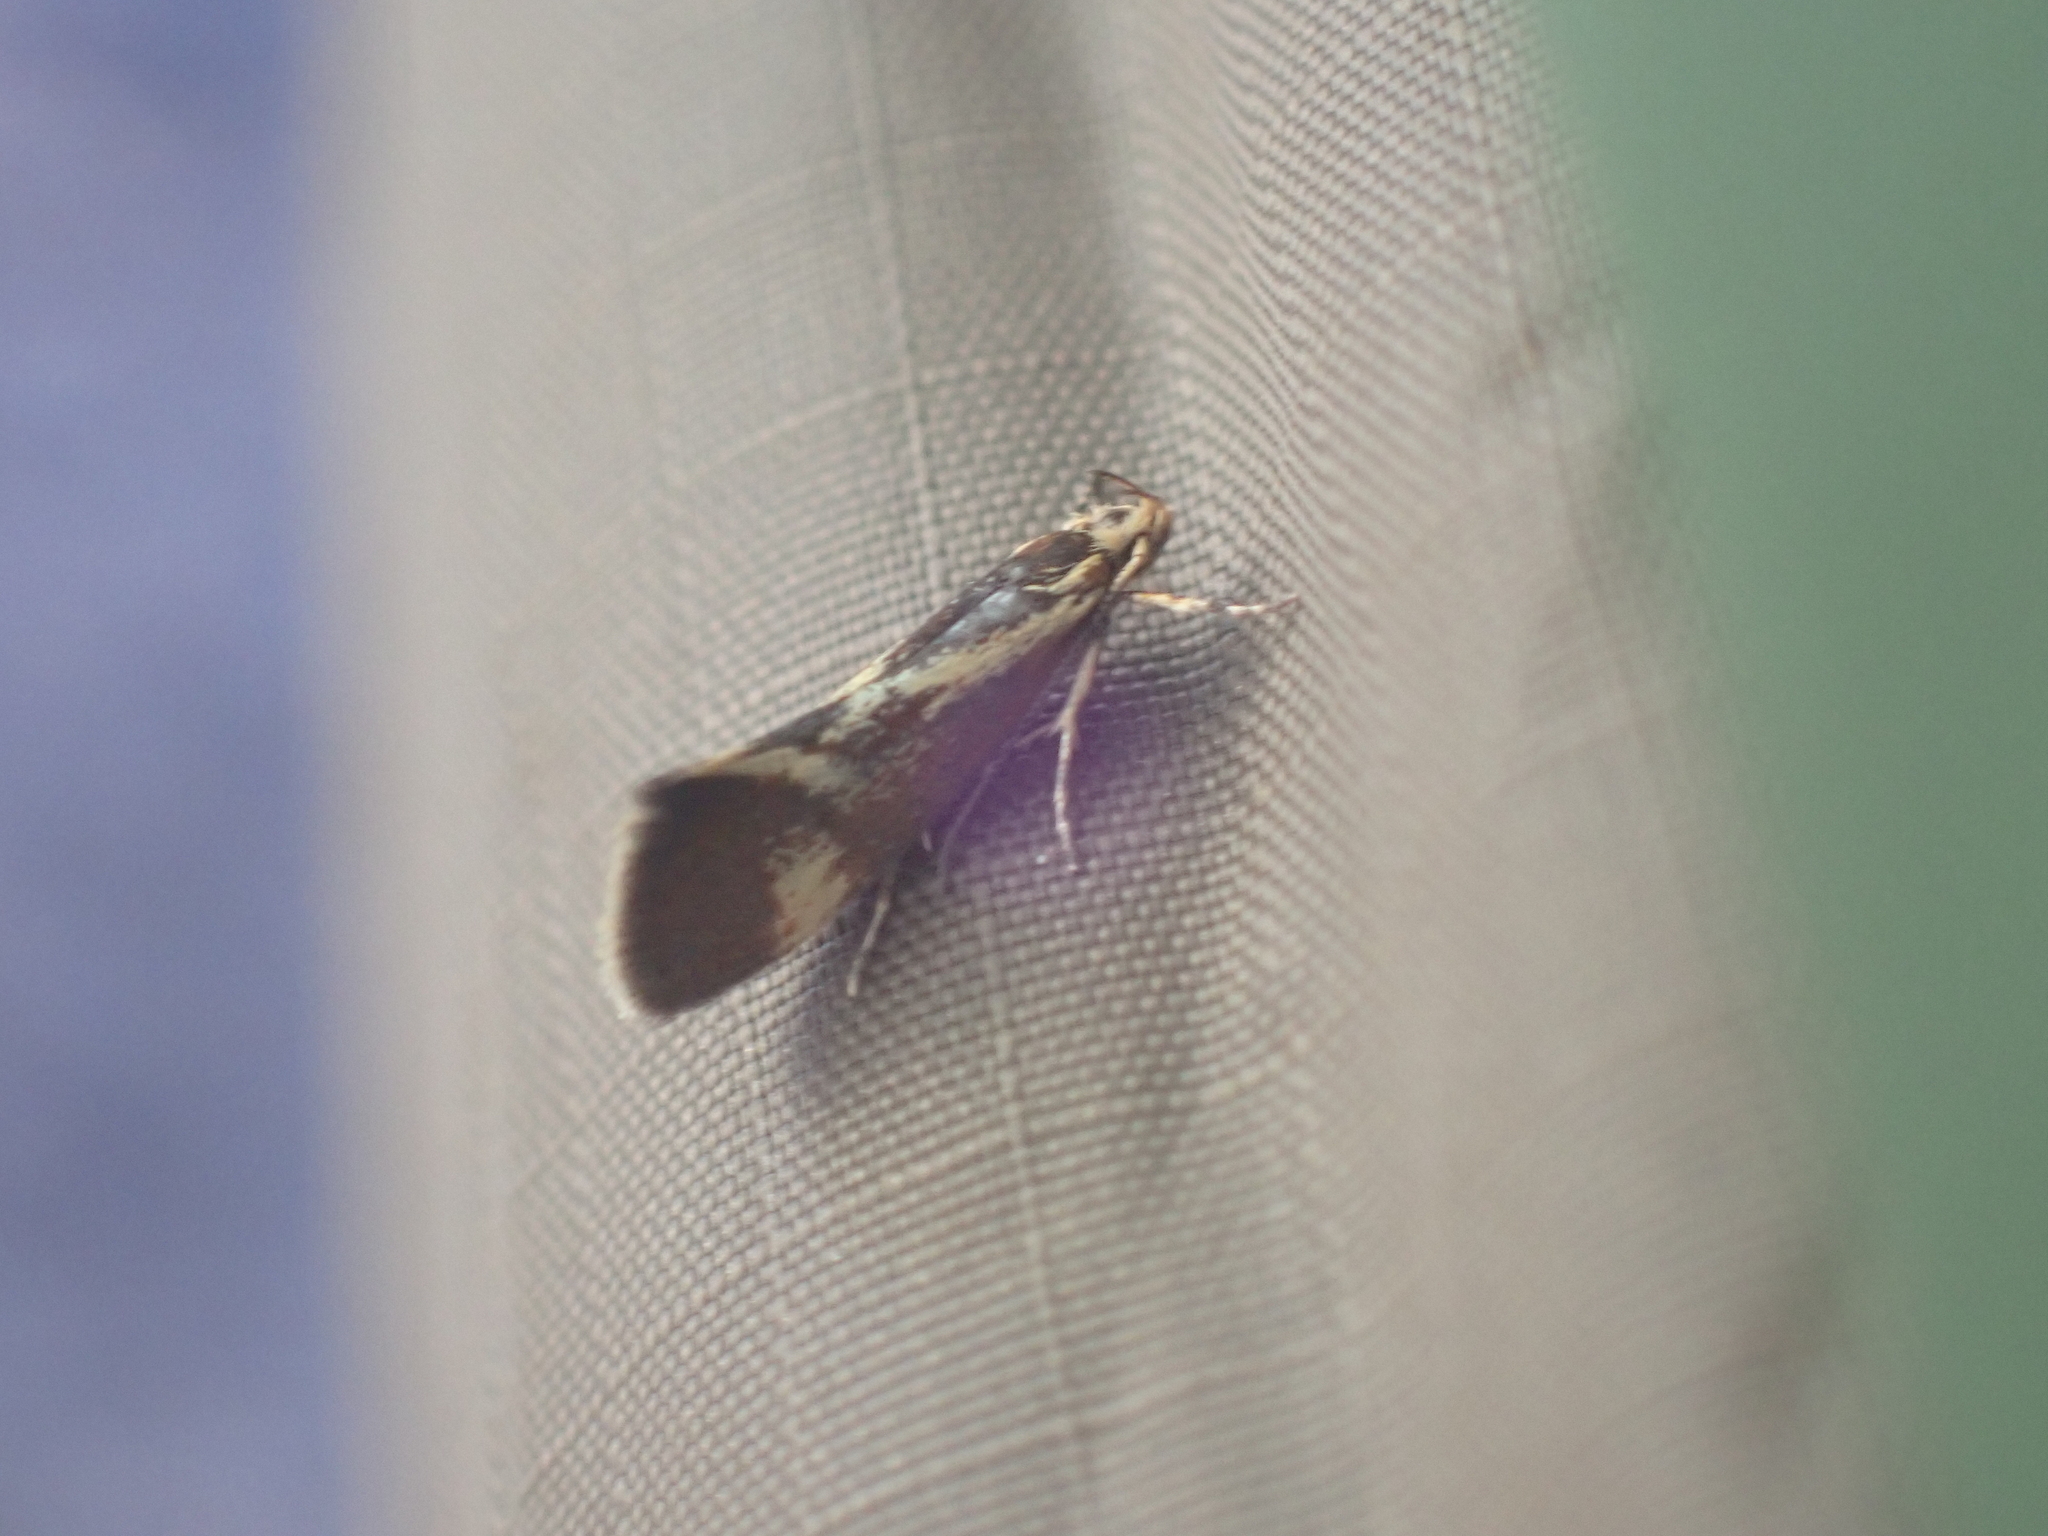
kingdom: Animalia
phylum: Arthropoda
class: Insecta
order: Lepidoptera
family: Oecophoridae
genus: Borkhausenia
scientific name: Borkhausenia cinnamomea
